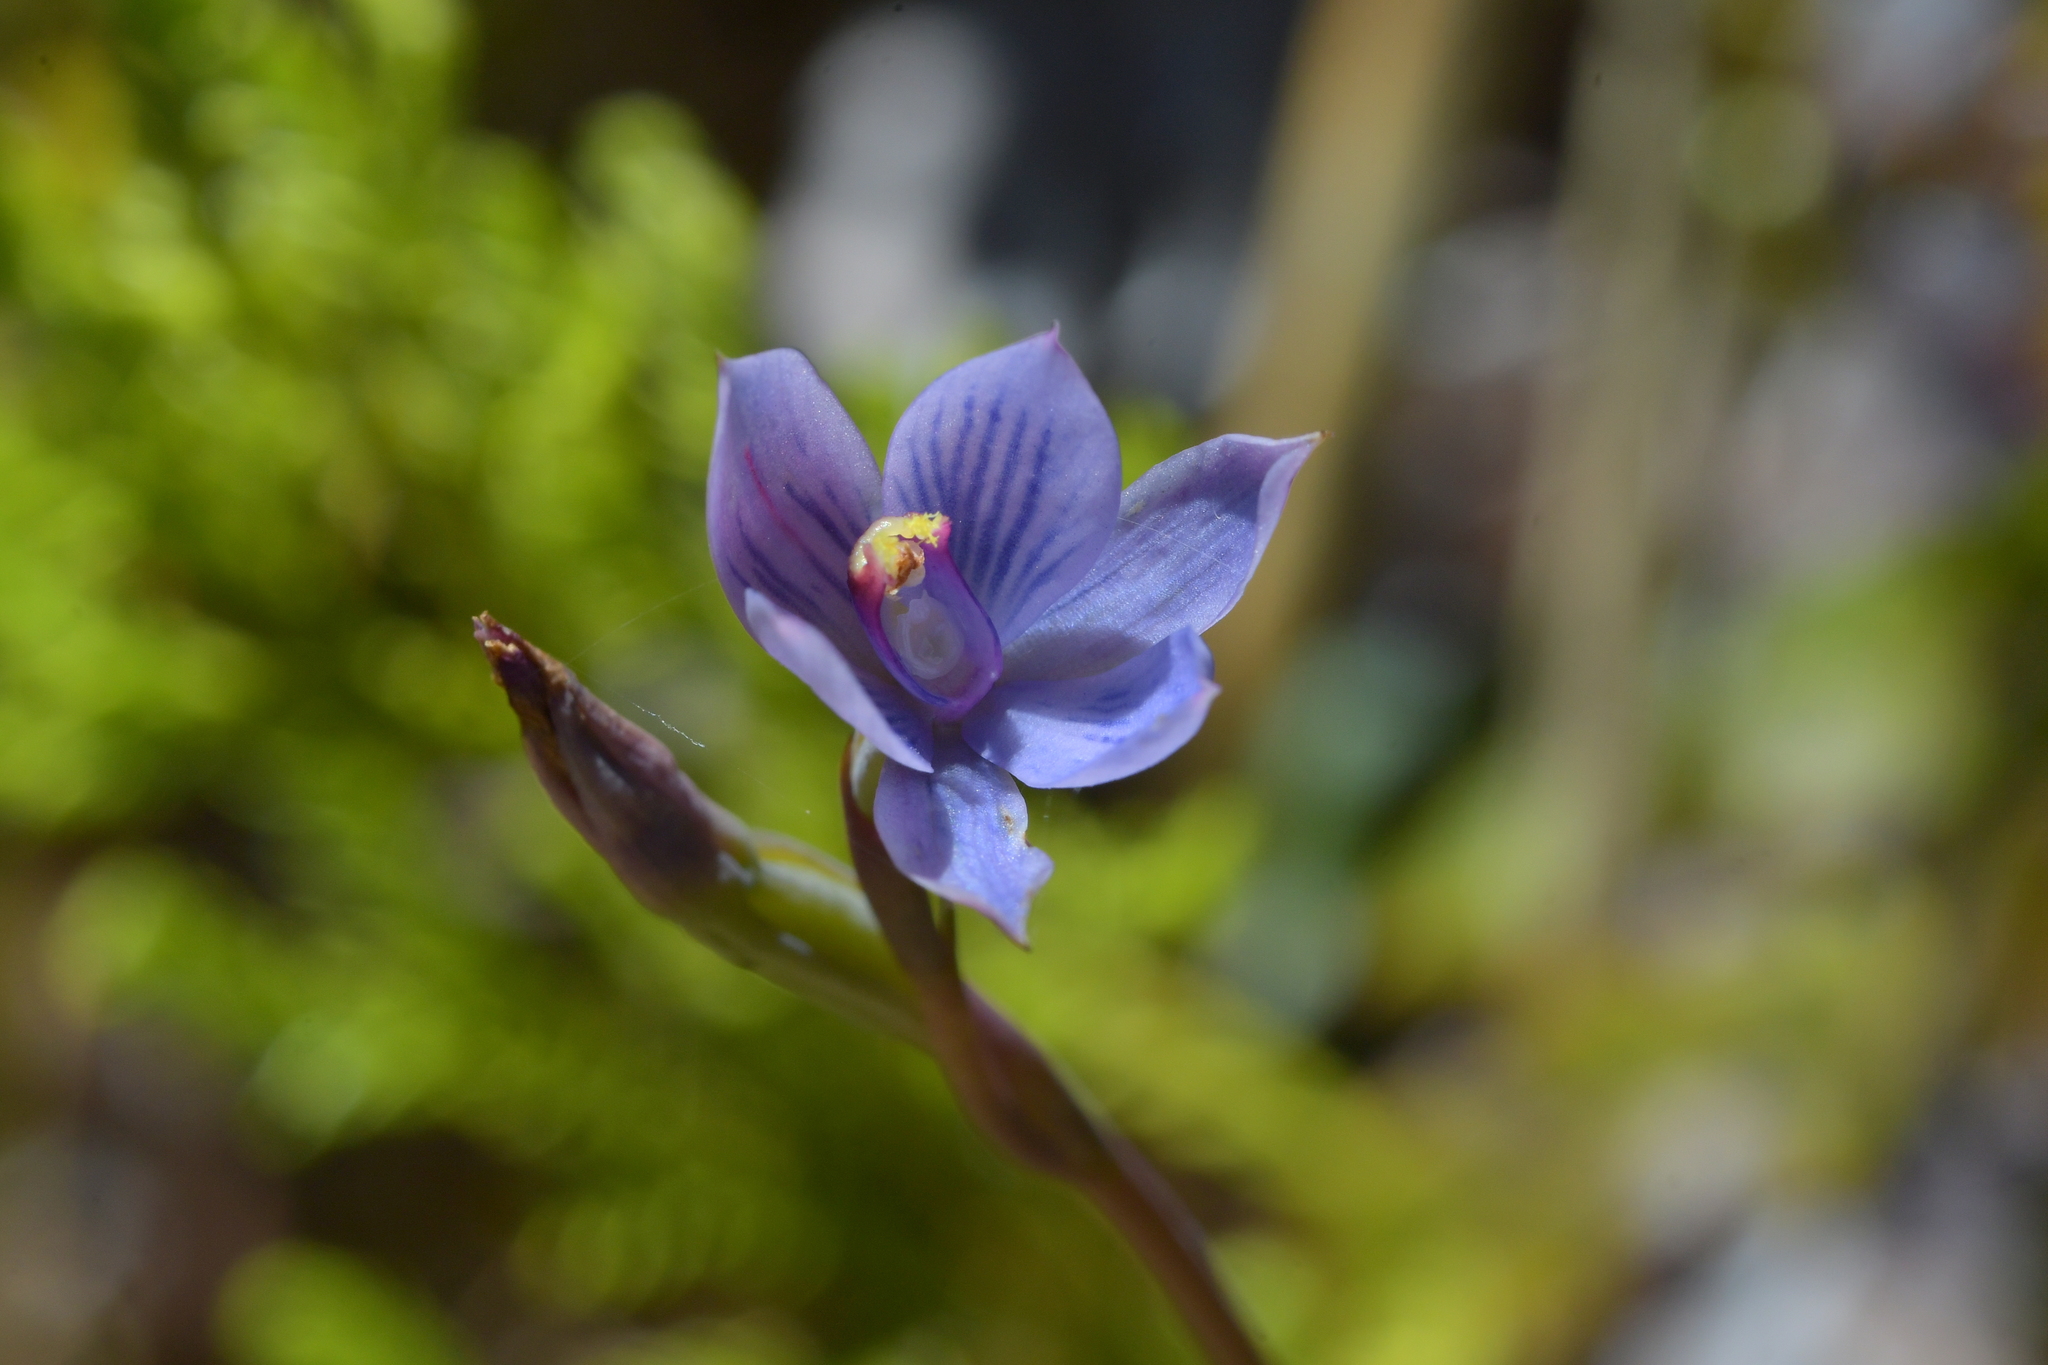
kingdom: Plantae
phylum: Tracheophyta
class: Liliopsida
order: Asparagales
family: Orchidaceae
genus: Thelymitra
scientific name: Thelymitra pulchella
